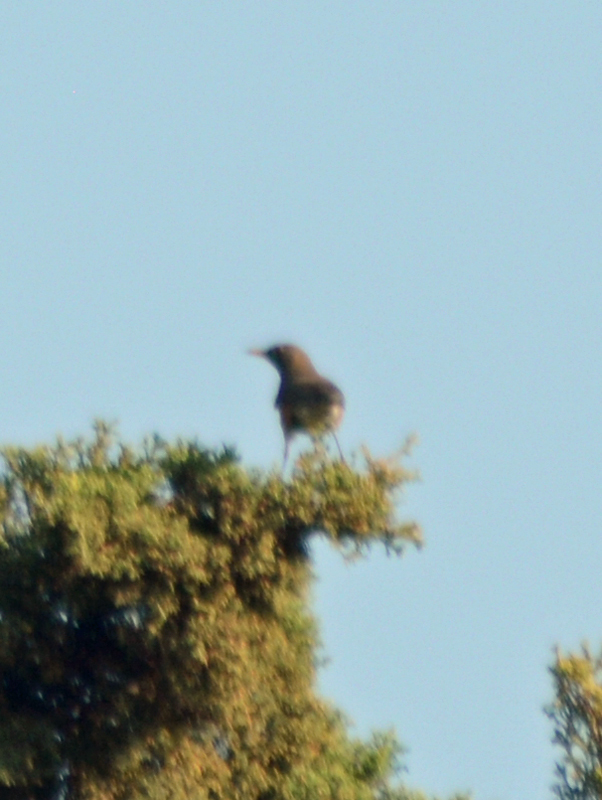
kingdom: Animalia
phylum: Chordata
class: Aves
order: Passeriformes
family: Turdidae
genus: Turdus
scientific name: Turdus migratorius
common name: American robin
